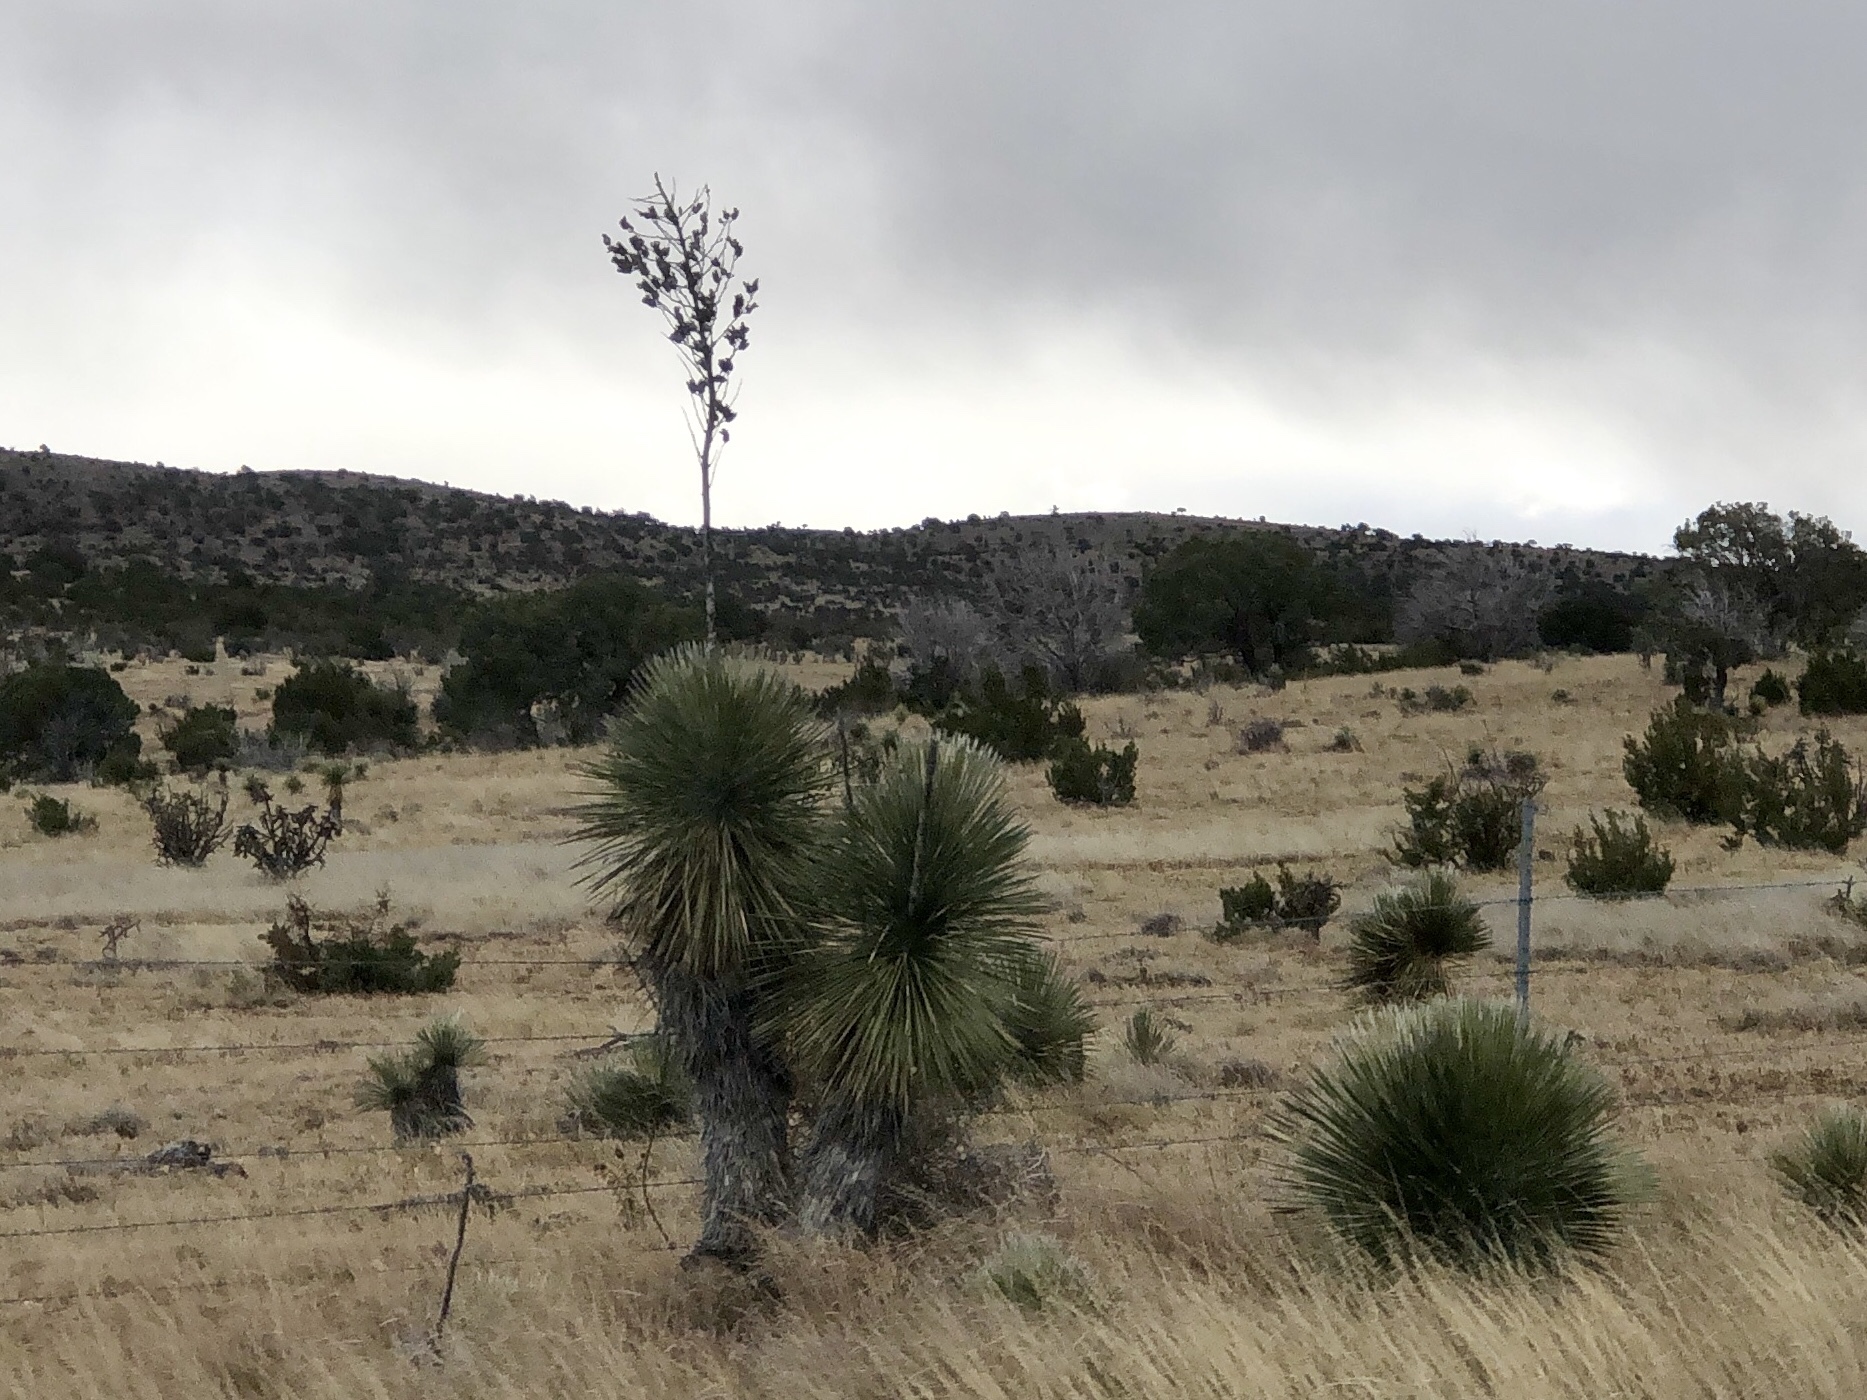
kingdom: Plantae
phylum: Tracheophyta
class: Liliopsida
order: Asparagales
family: Asparagaceae
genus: Yucca
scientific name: Yucca elata
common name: Palmella
